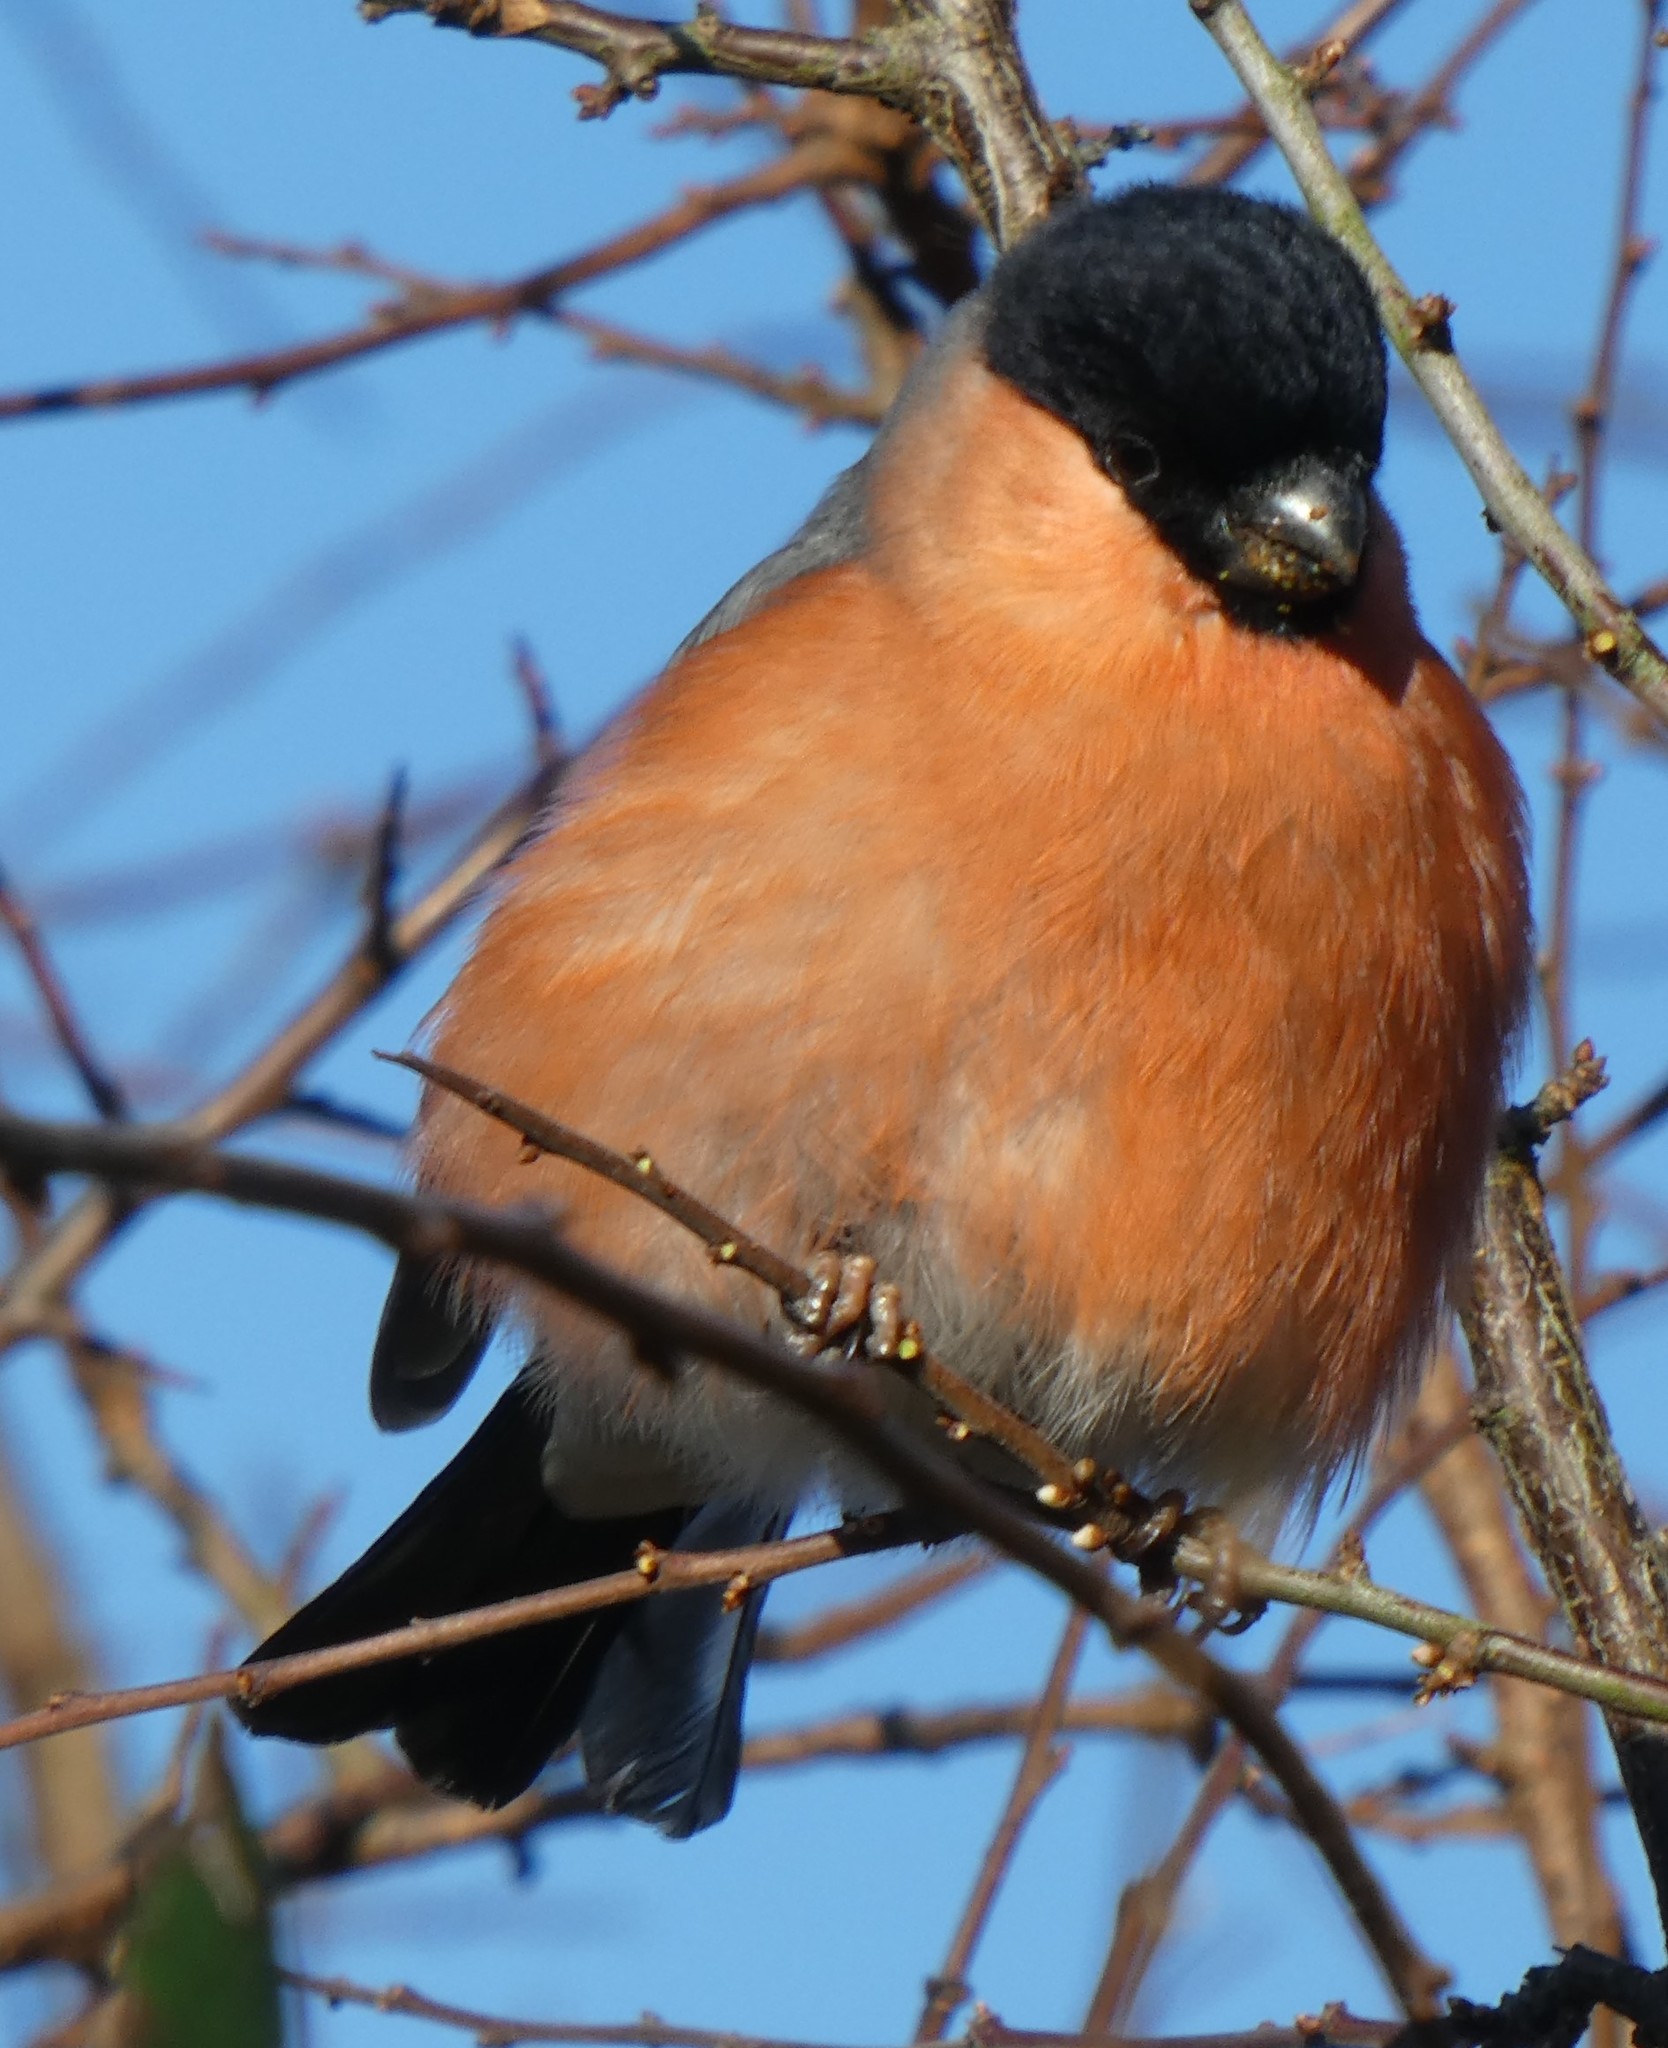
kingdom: Animalia
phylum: Chordata
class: Aves
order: Passeriformes
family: Fringillidae
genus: Pyrrhula
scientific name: Pyrrhula pyrrhula
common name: Eurasian bullfinch
